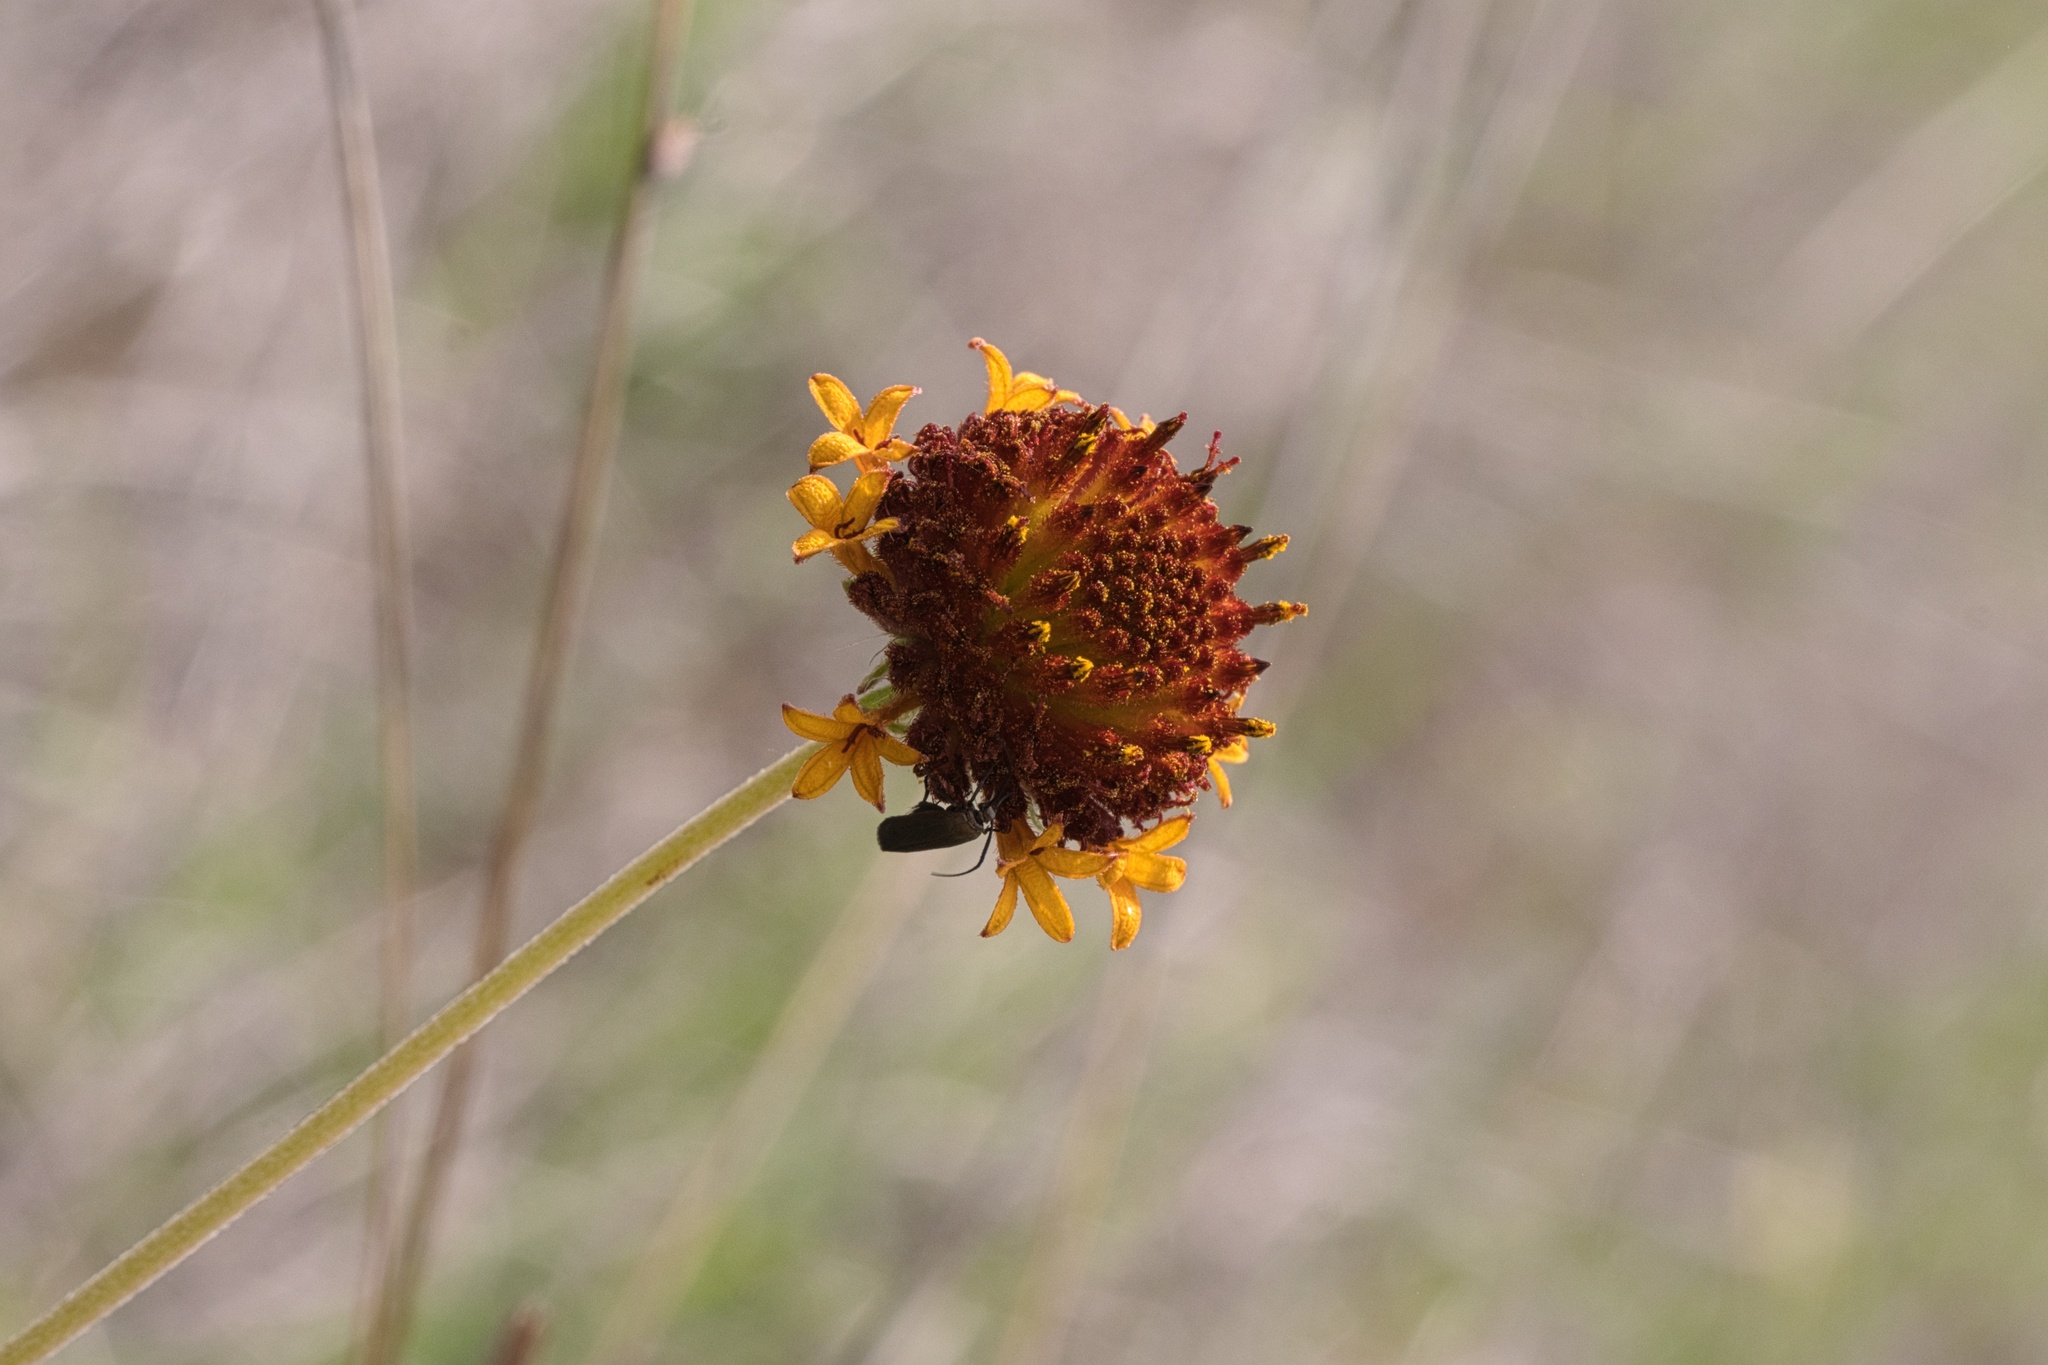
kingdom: Plantae
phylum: Tracheophyta
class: Magnoliopsida
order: Asterales
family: Asteraceae
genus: Gaillardia
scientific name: Gaillardia suavis
